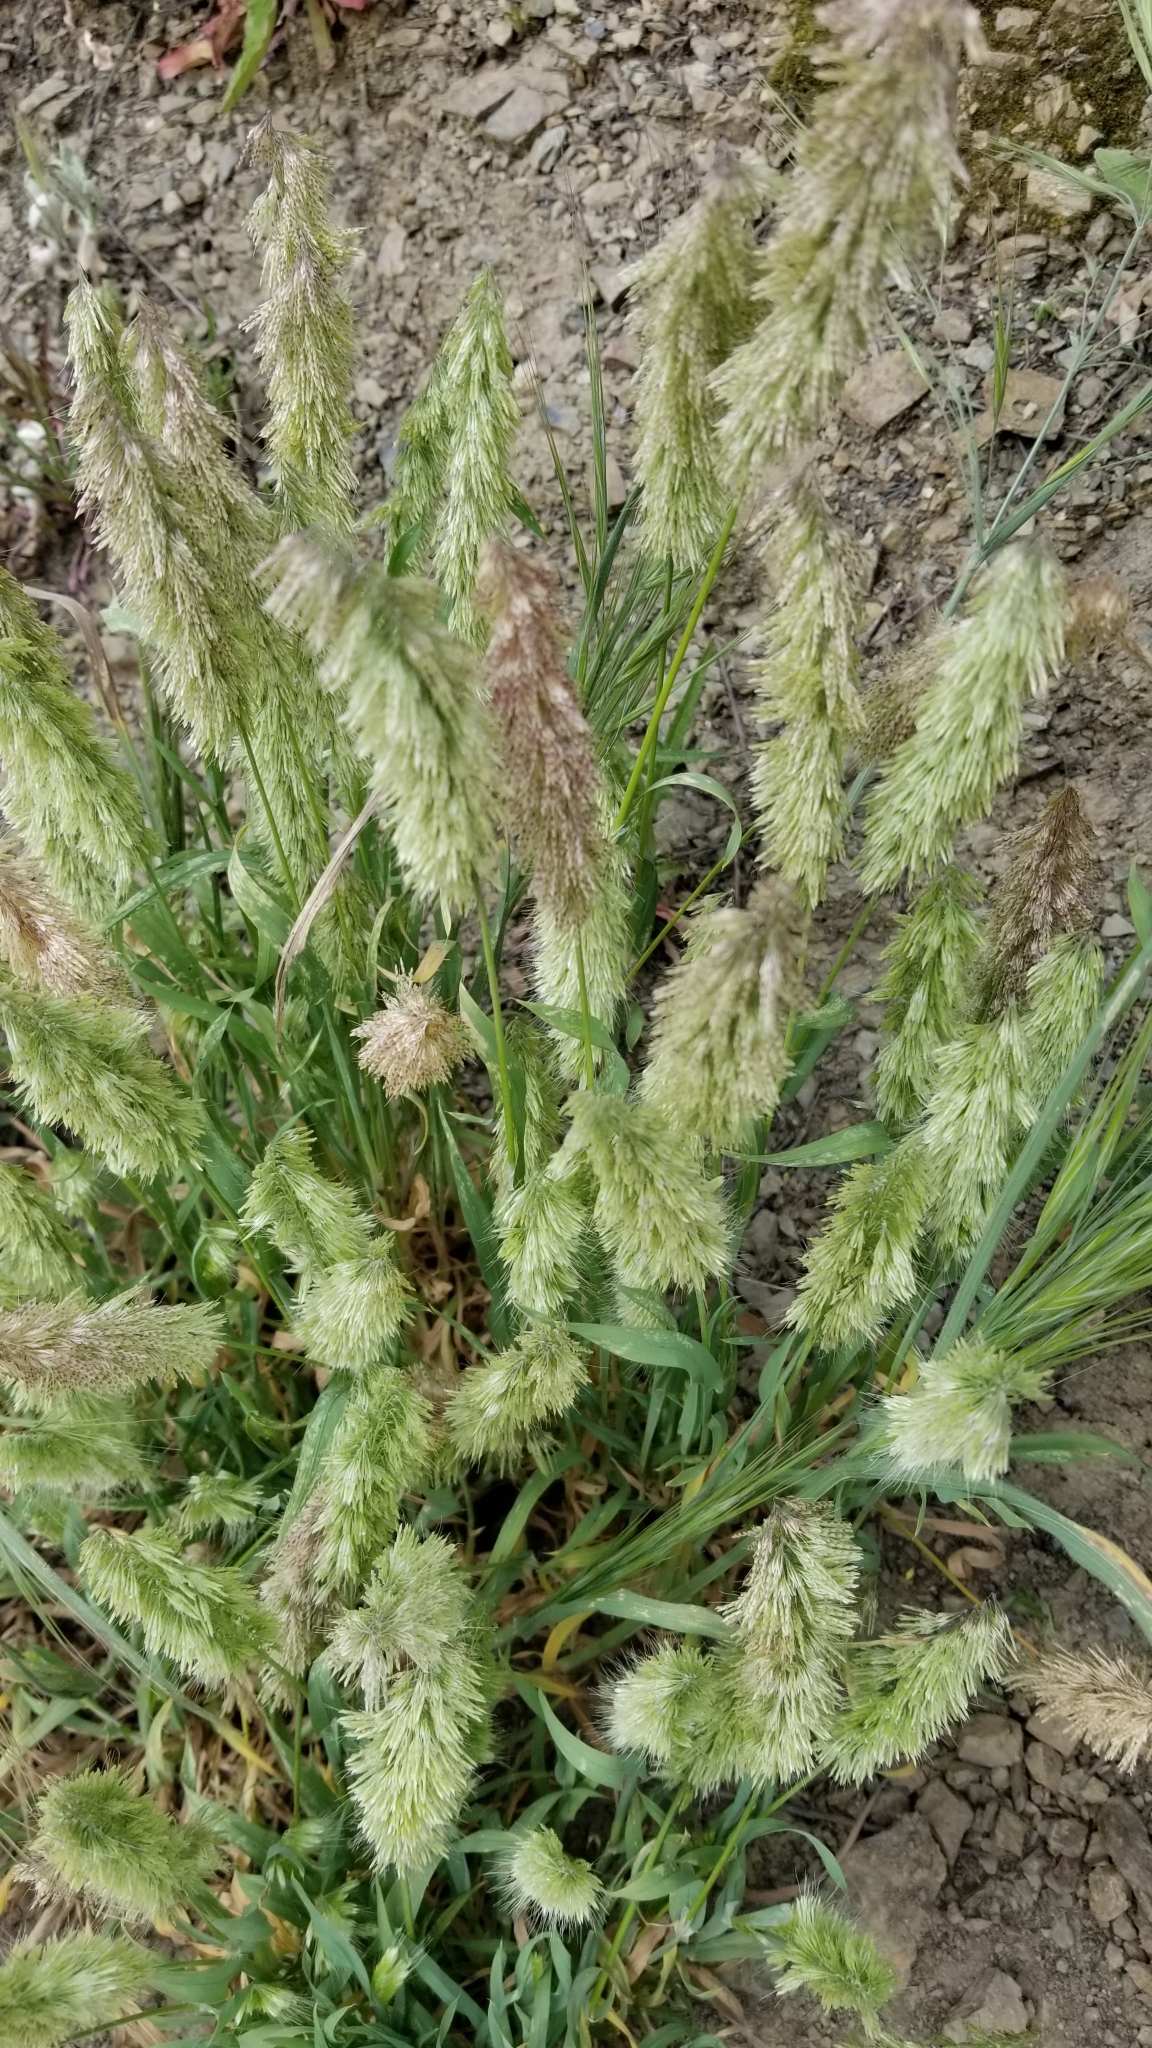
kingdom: Plantae
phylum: Tracheophyta
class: Liliopsida
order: Poales
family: Poaceae
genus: Lamarckia
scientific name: Lamarckia aurea
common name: Golden dog's-tail
